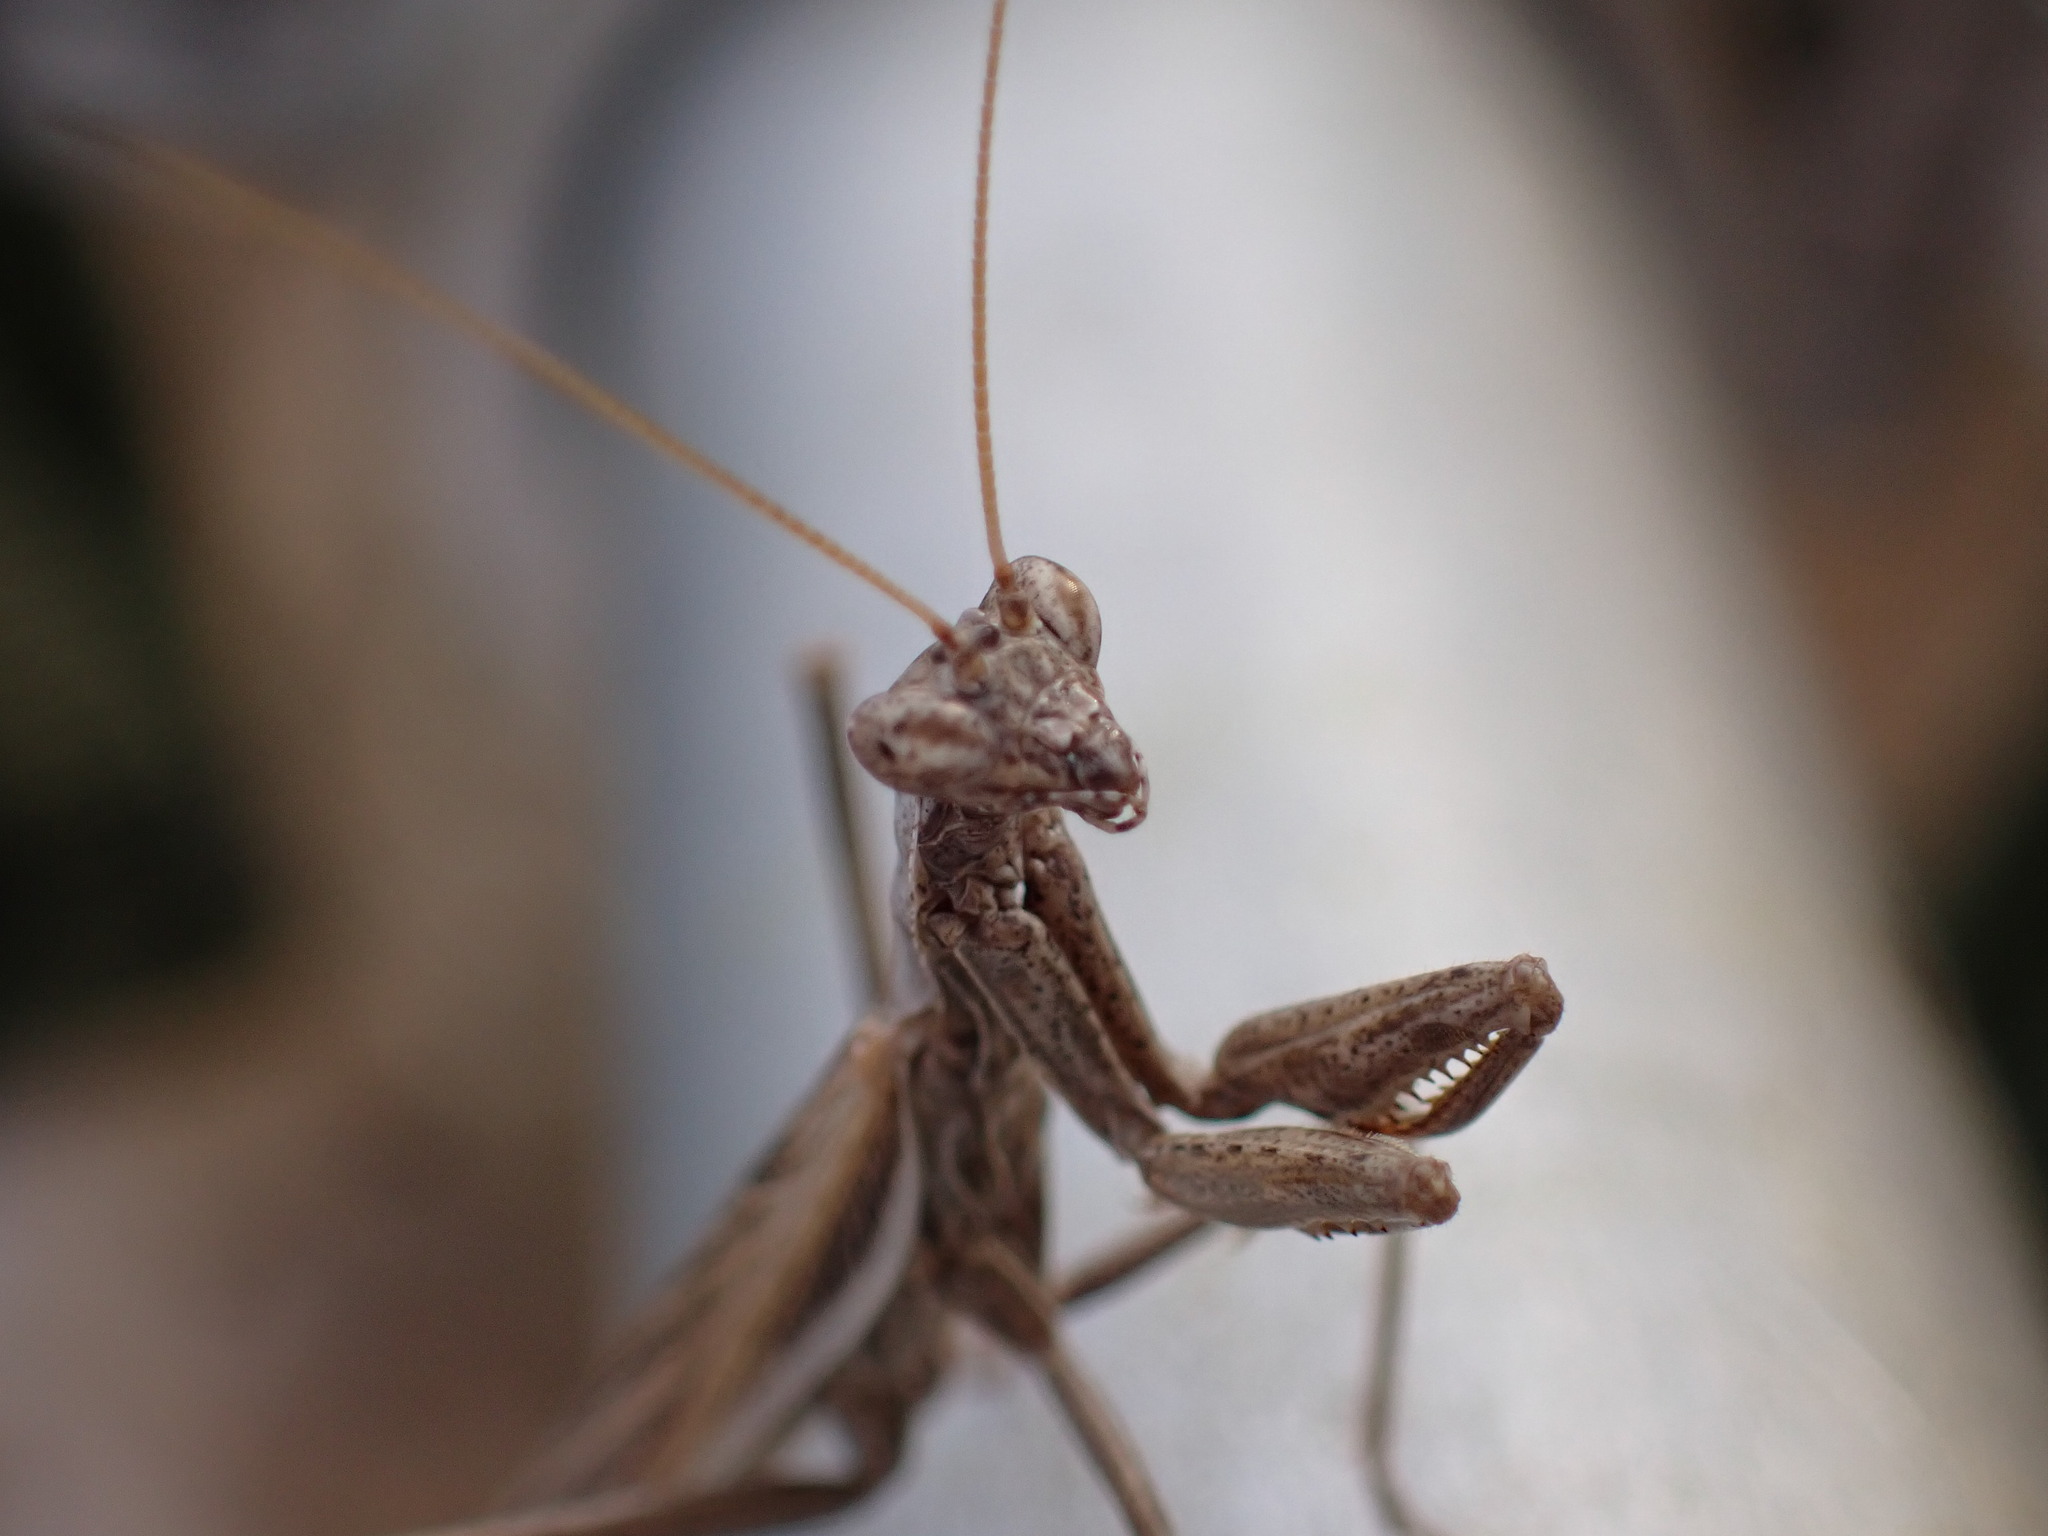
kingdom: Animalia
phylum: Arthropoda
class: Insecta
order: Mantodea
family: Amelidae
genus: Ameles
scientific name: Ameles decolor
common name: Dwarf mantis
